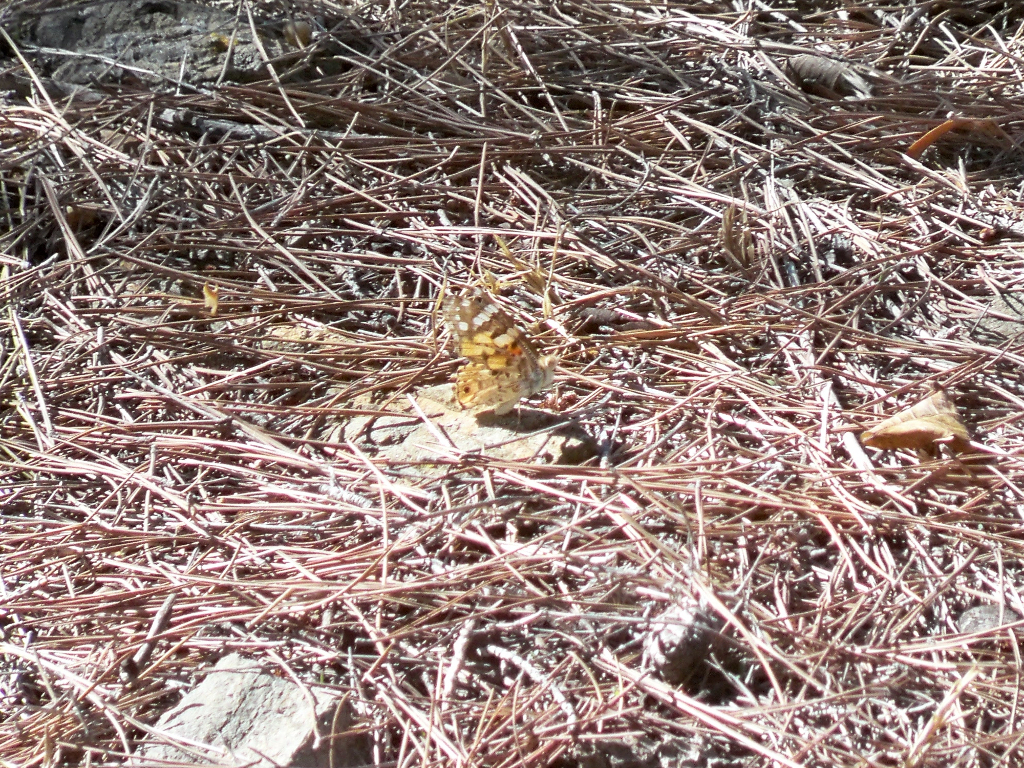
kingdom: Animalia
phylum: Arthropoda
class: Insecta
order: Lepidoptera
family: Nymphalidae
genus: Vanessa
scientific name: Vanessa cardui
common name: Painted lady
